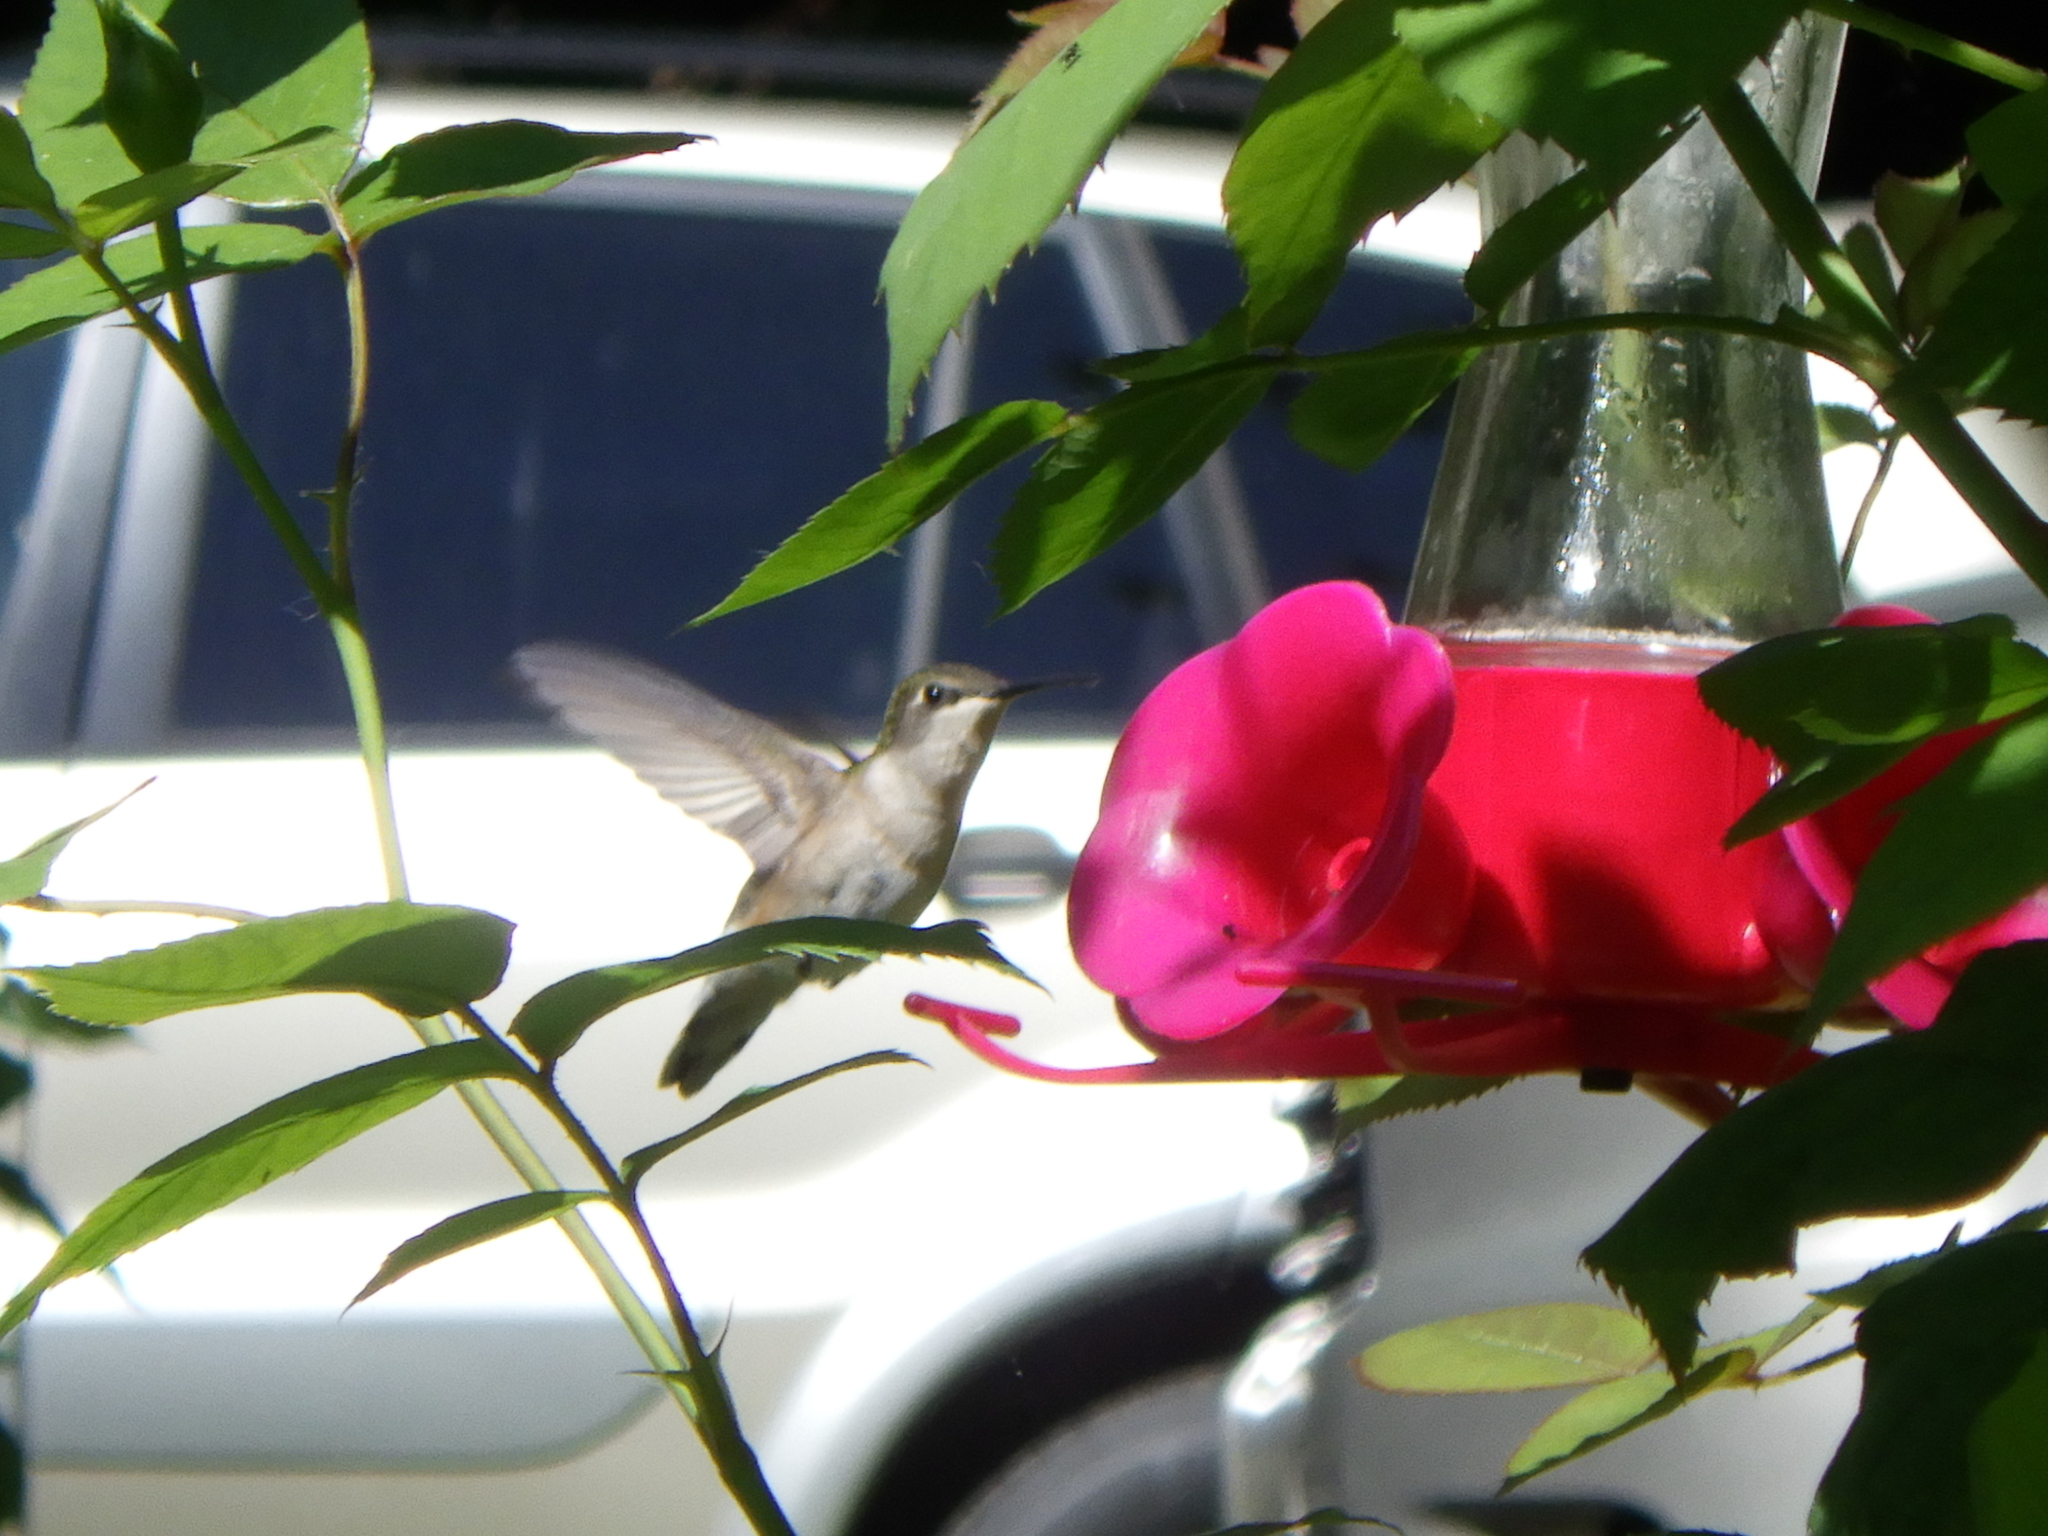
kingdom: Animalia
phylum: Chordata
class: Aves
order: Apodiformes
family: Trochilidae
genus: Archilochus
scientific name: Archilochus colubris
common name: Ruby-throated hummingbird
